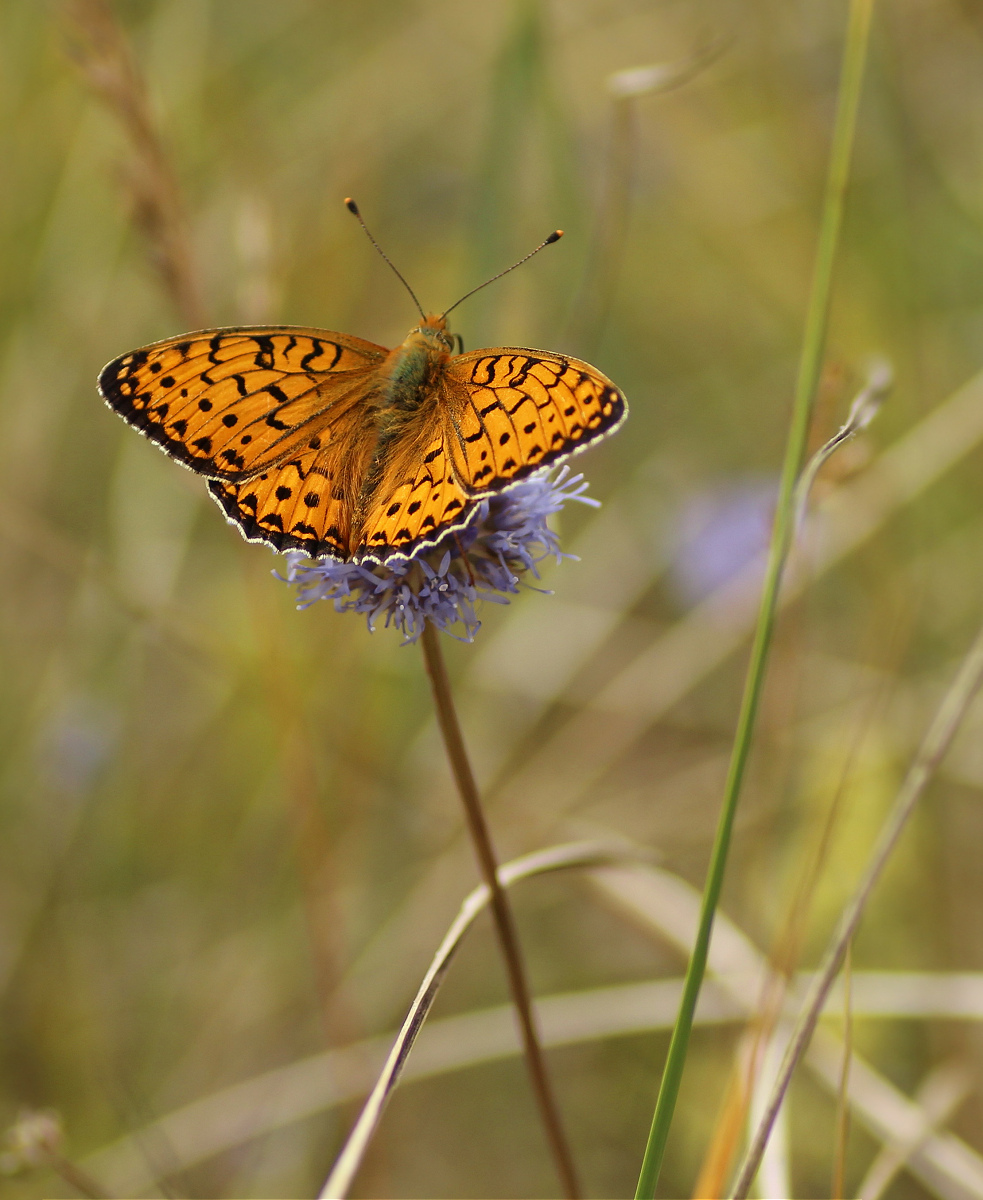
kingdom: Animalia
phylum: Arthropoda
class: Insecta
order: Lepidoptera
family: Nymphalidae
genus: Speyeria
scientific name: Speyeria aglaja
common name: Dark green fritillary
